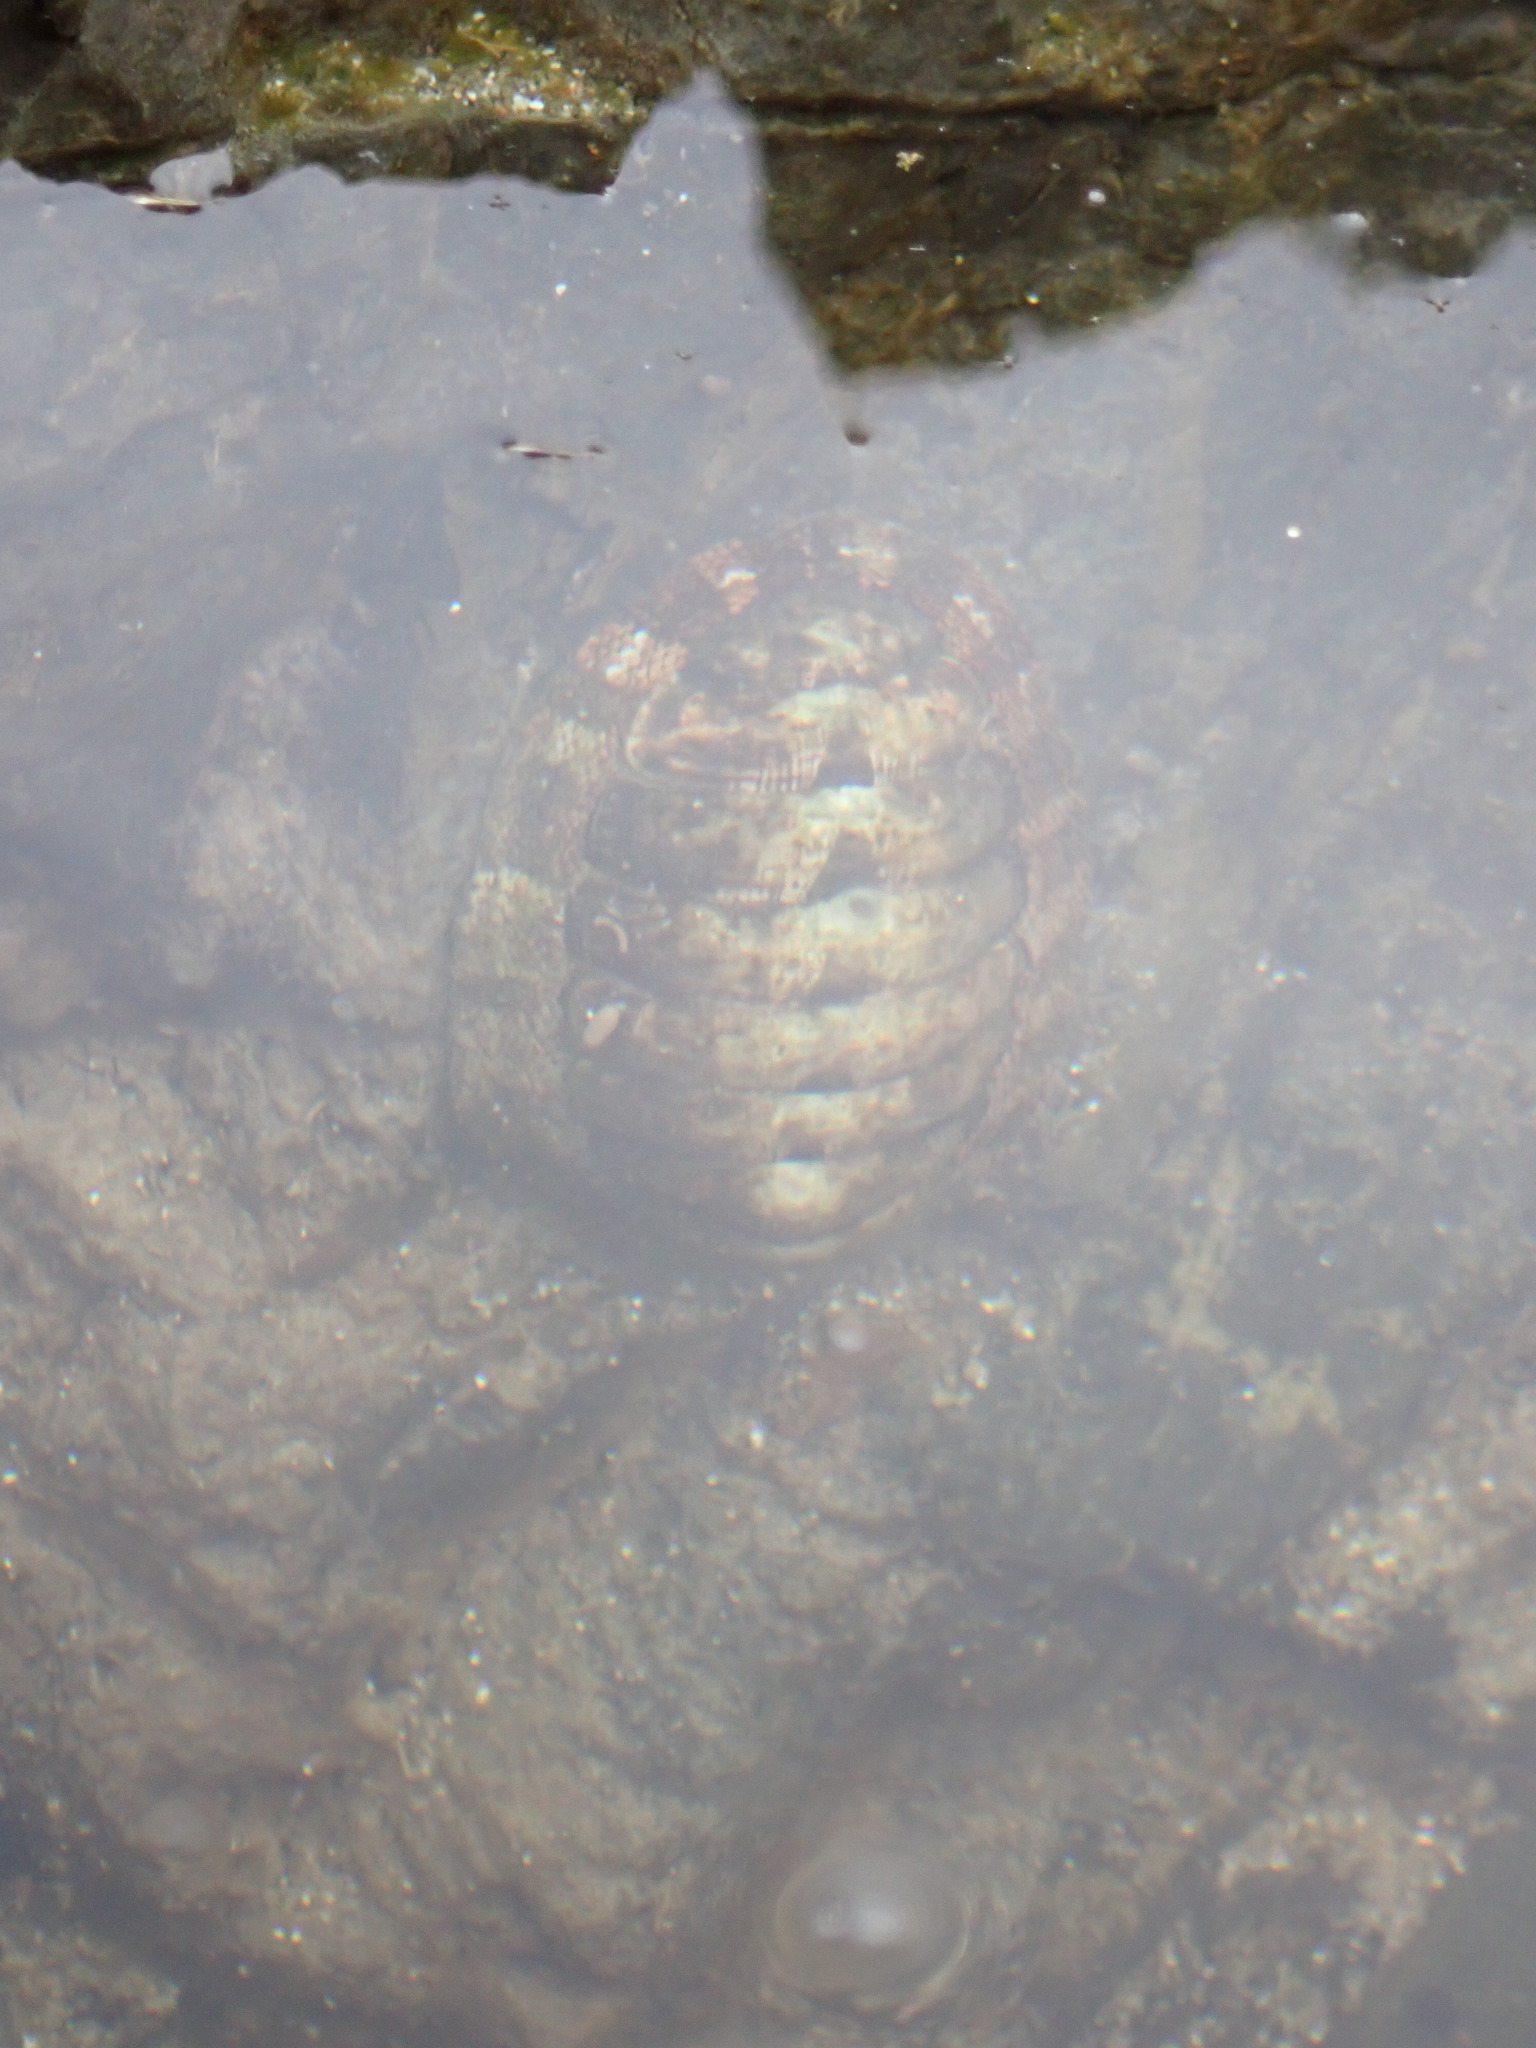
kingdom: Animalia
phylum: Mollusca
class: Polyplacophora
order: Chitonida
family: Chitonidae
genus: Sypharochiton
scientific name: Sypharochiton pelliserpentis
